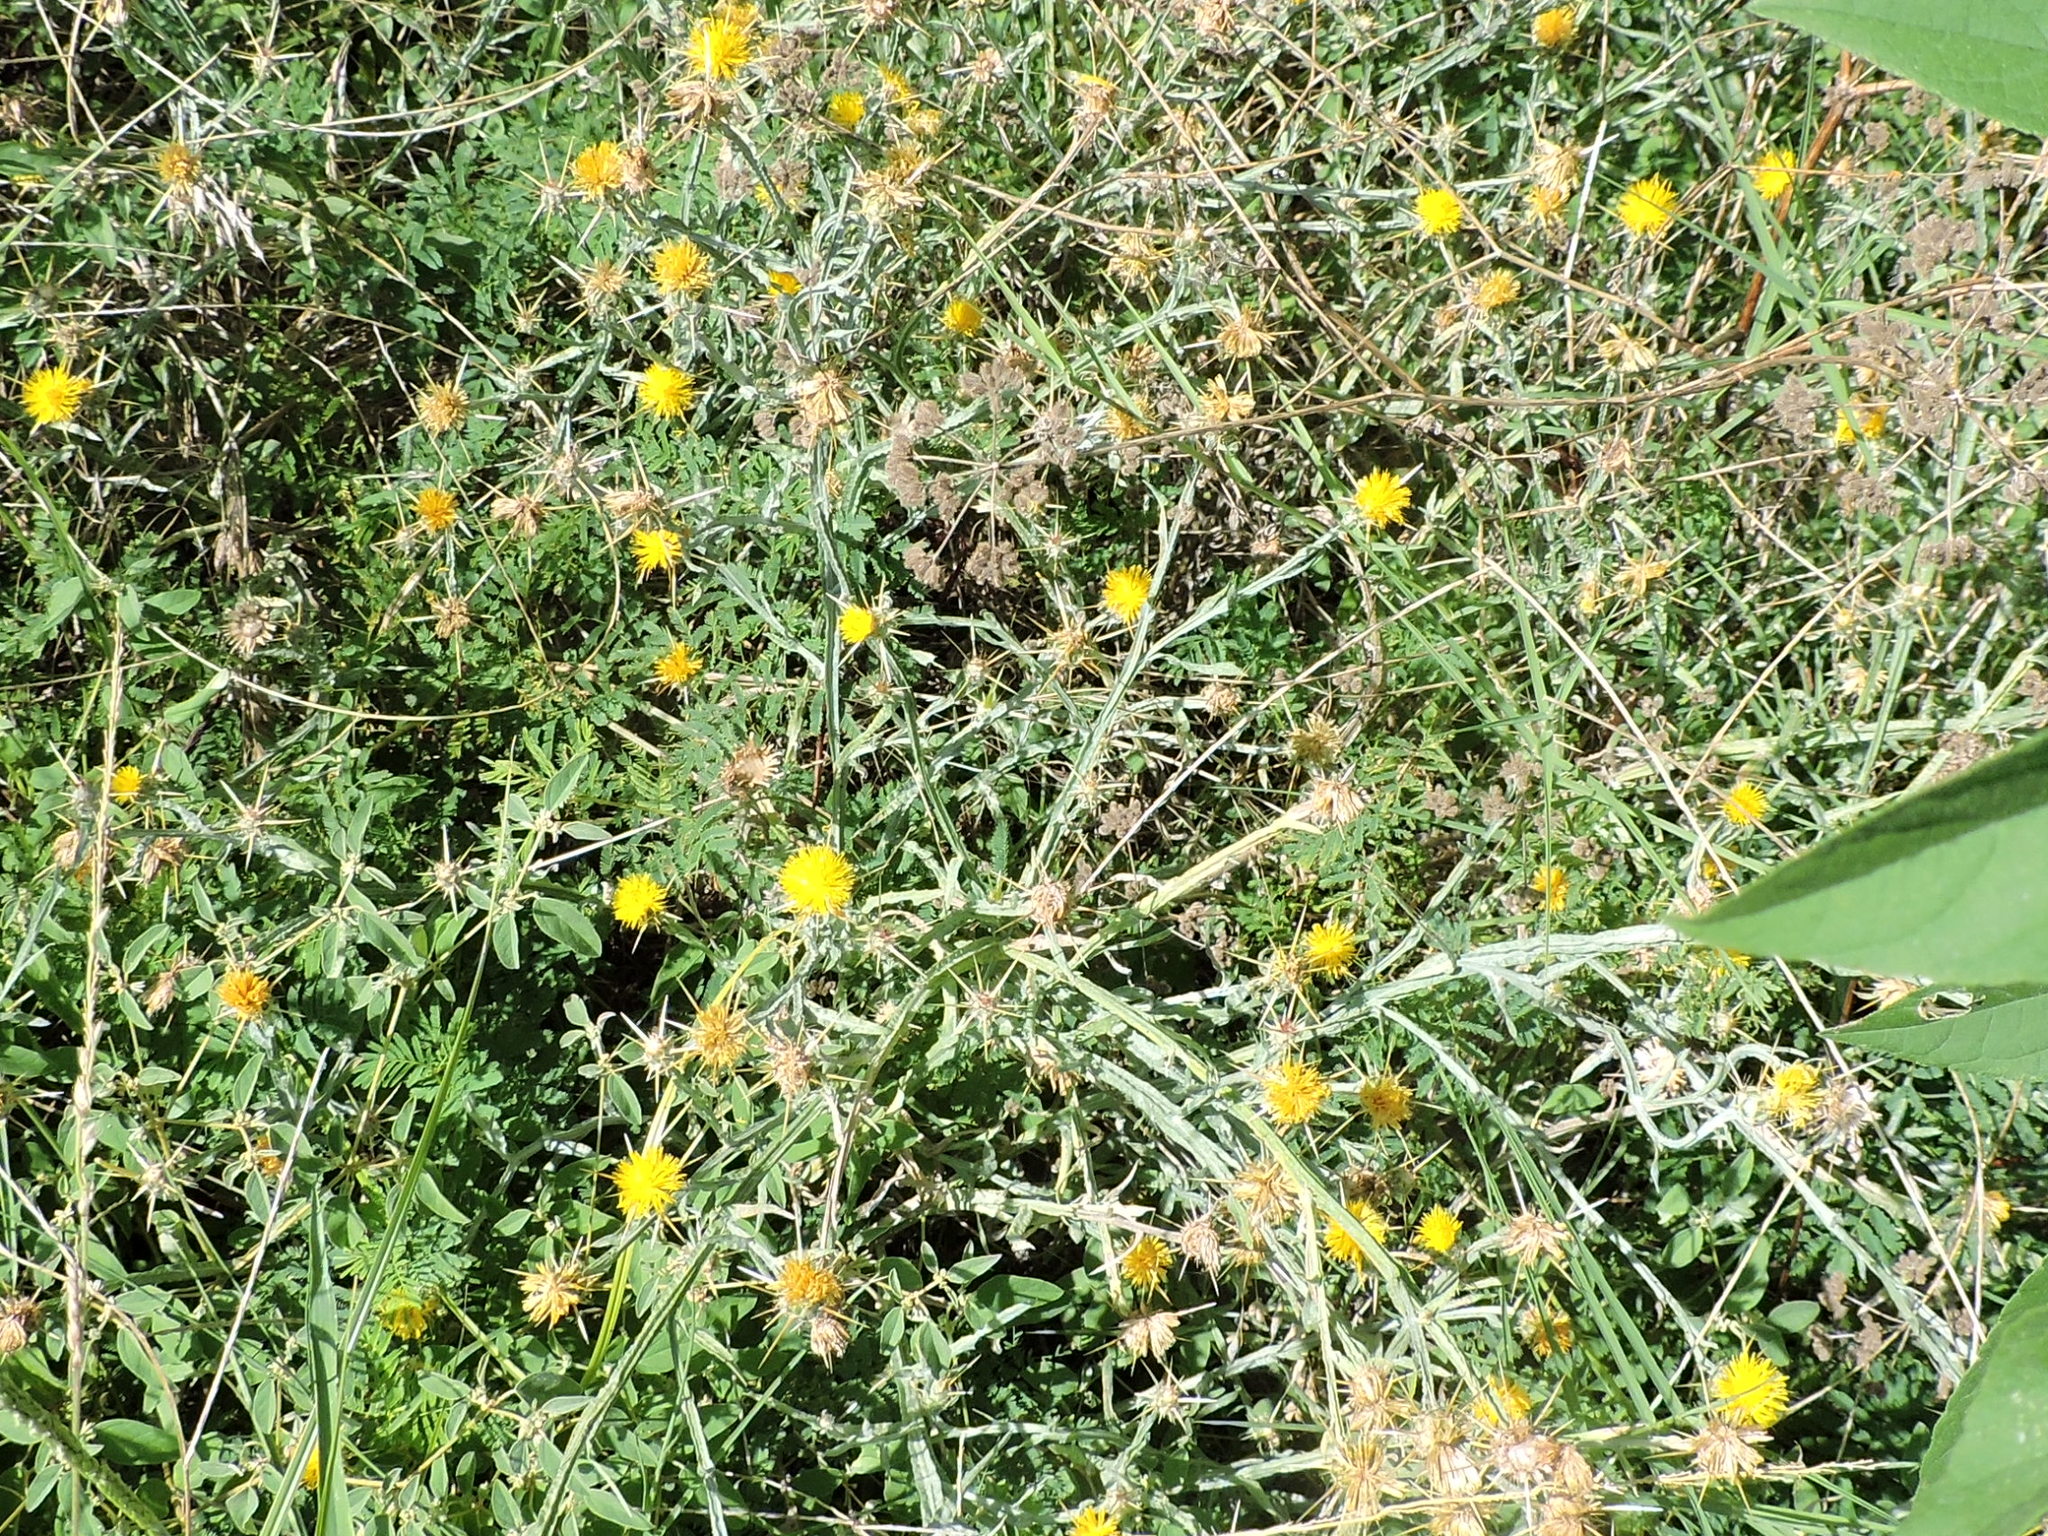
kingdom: Plantae
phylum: Tracheophyta
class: Magnoliopsida
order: Asterales
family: Asteraceae
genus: Centaurea
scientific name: Centaurea solstitialis
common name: Yellow star-thistle
